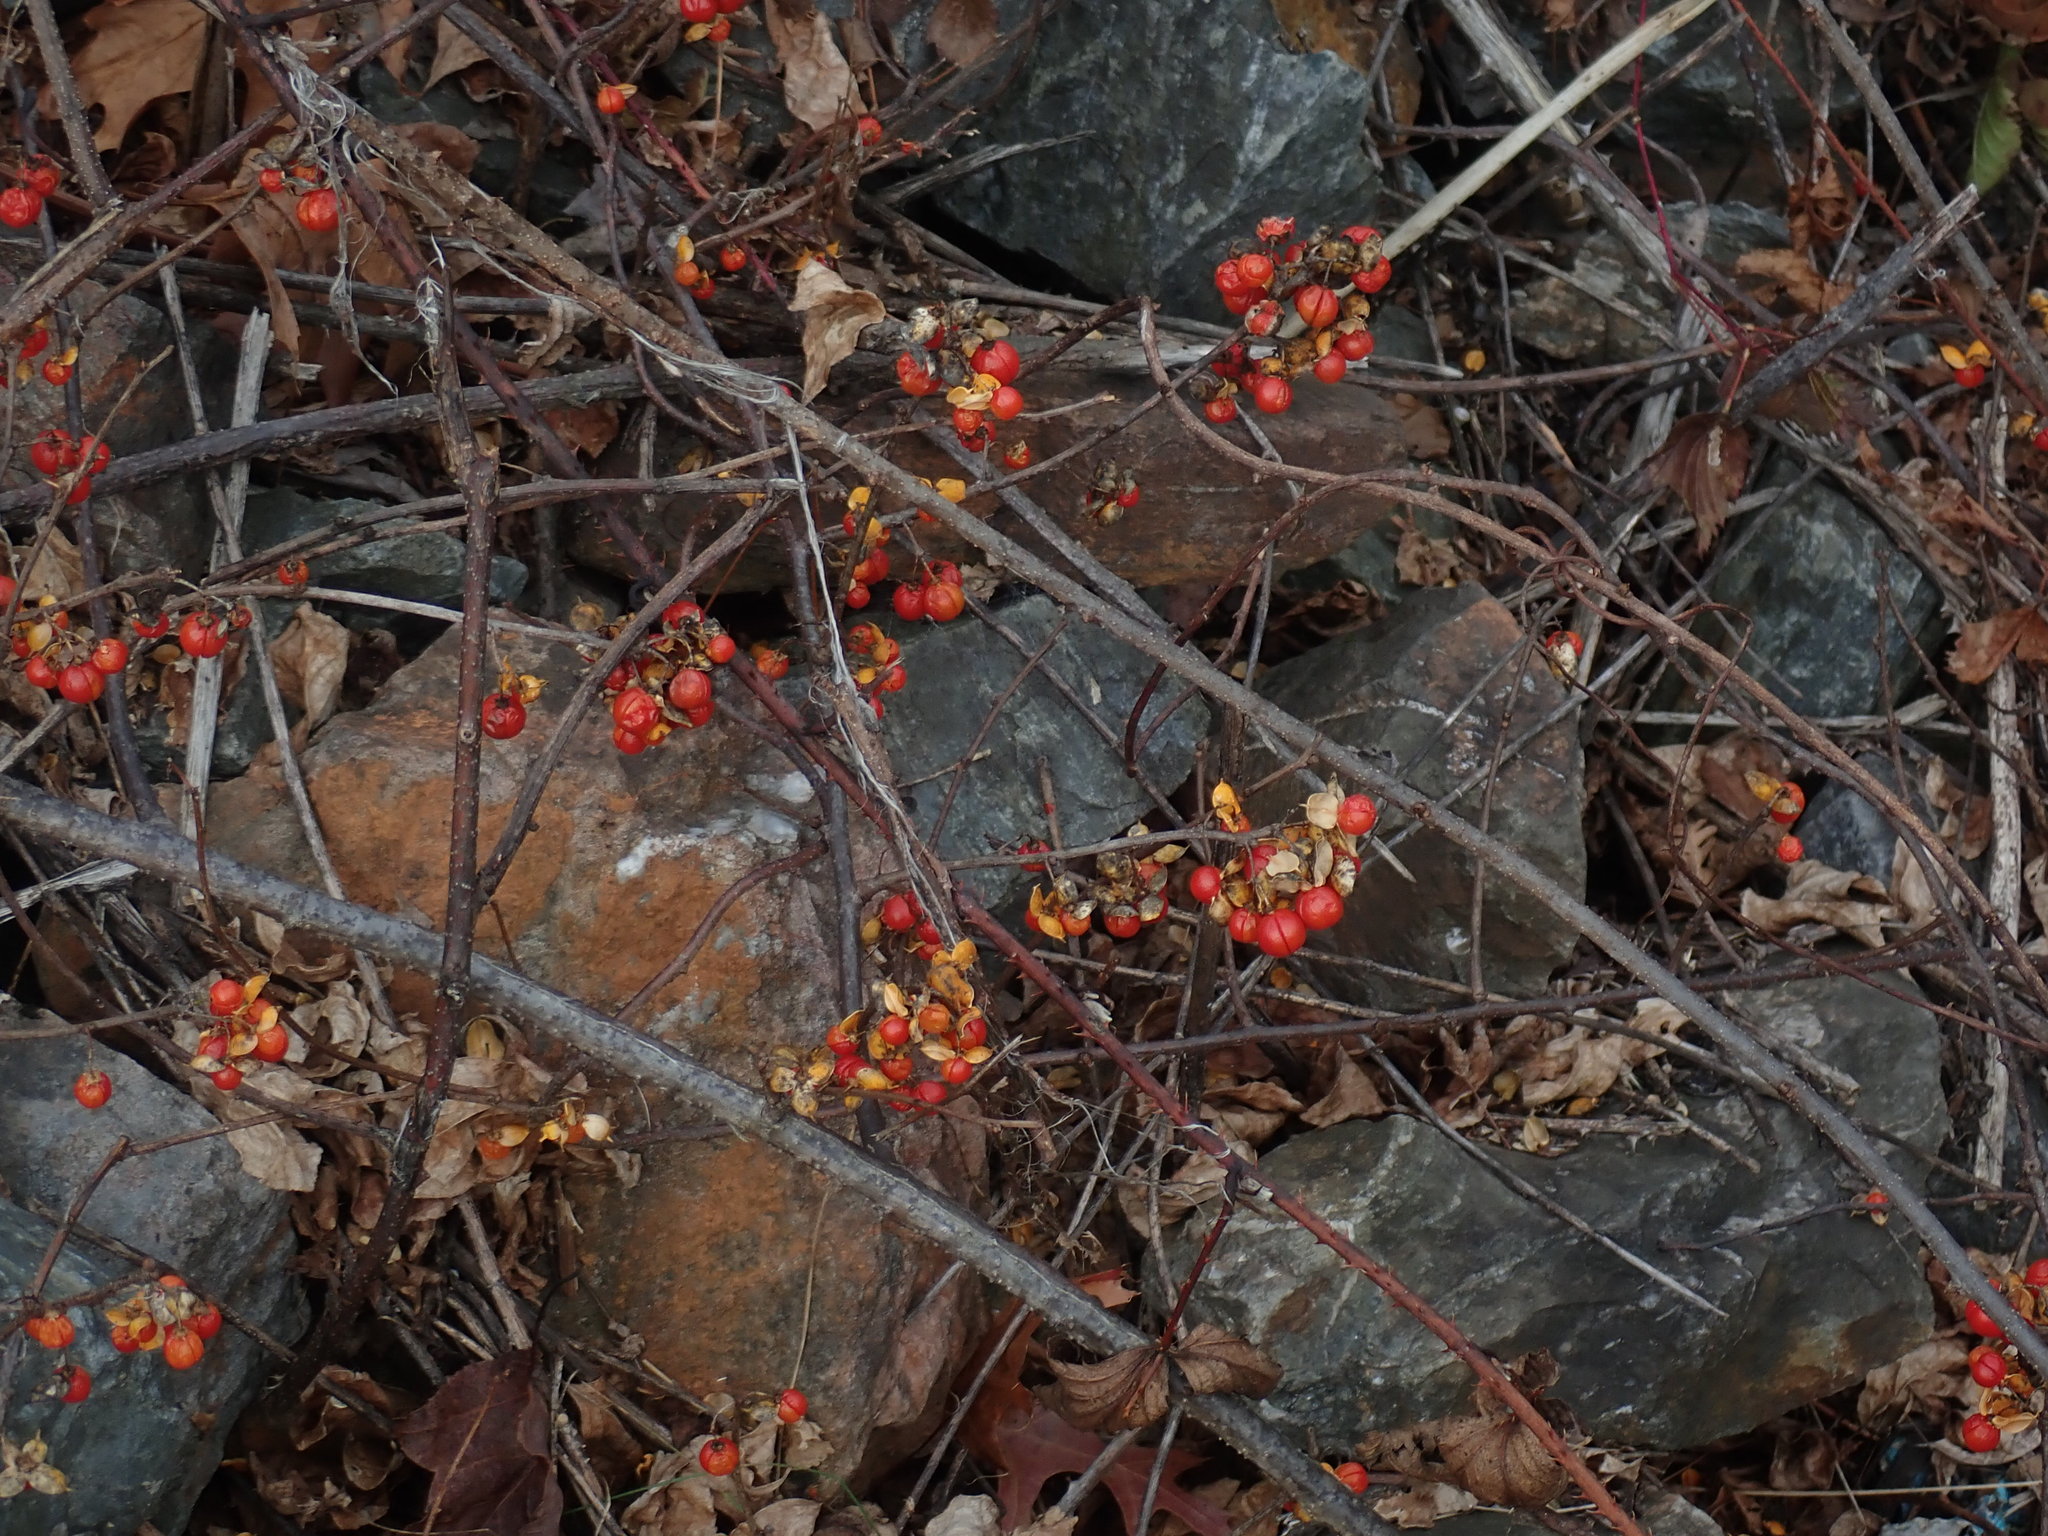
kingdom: Plantae
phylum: Tracheophyta
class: Magnoliopsida
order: Celastrales
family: Celastraceae
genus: Celastrus
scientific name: Celastrus orbiculatus
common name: Oriental bittersweet
